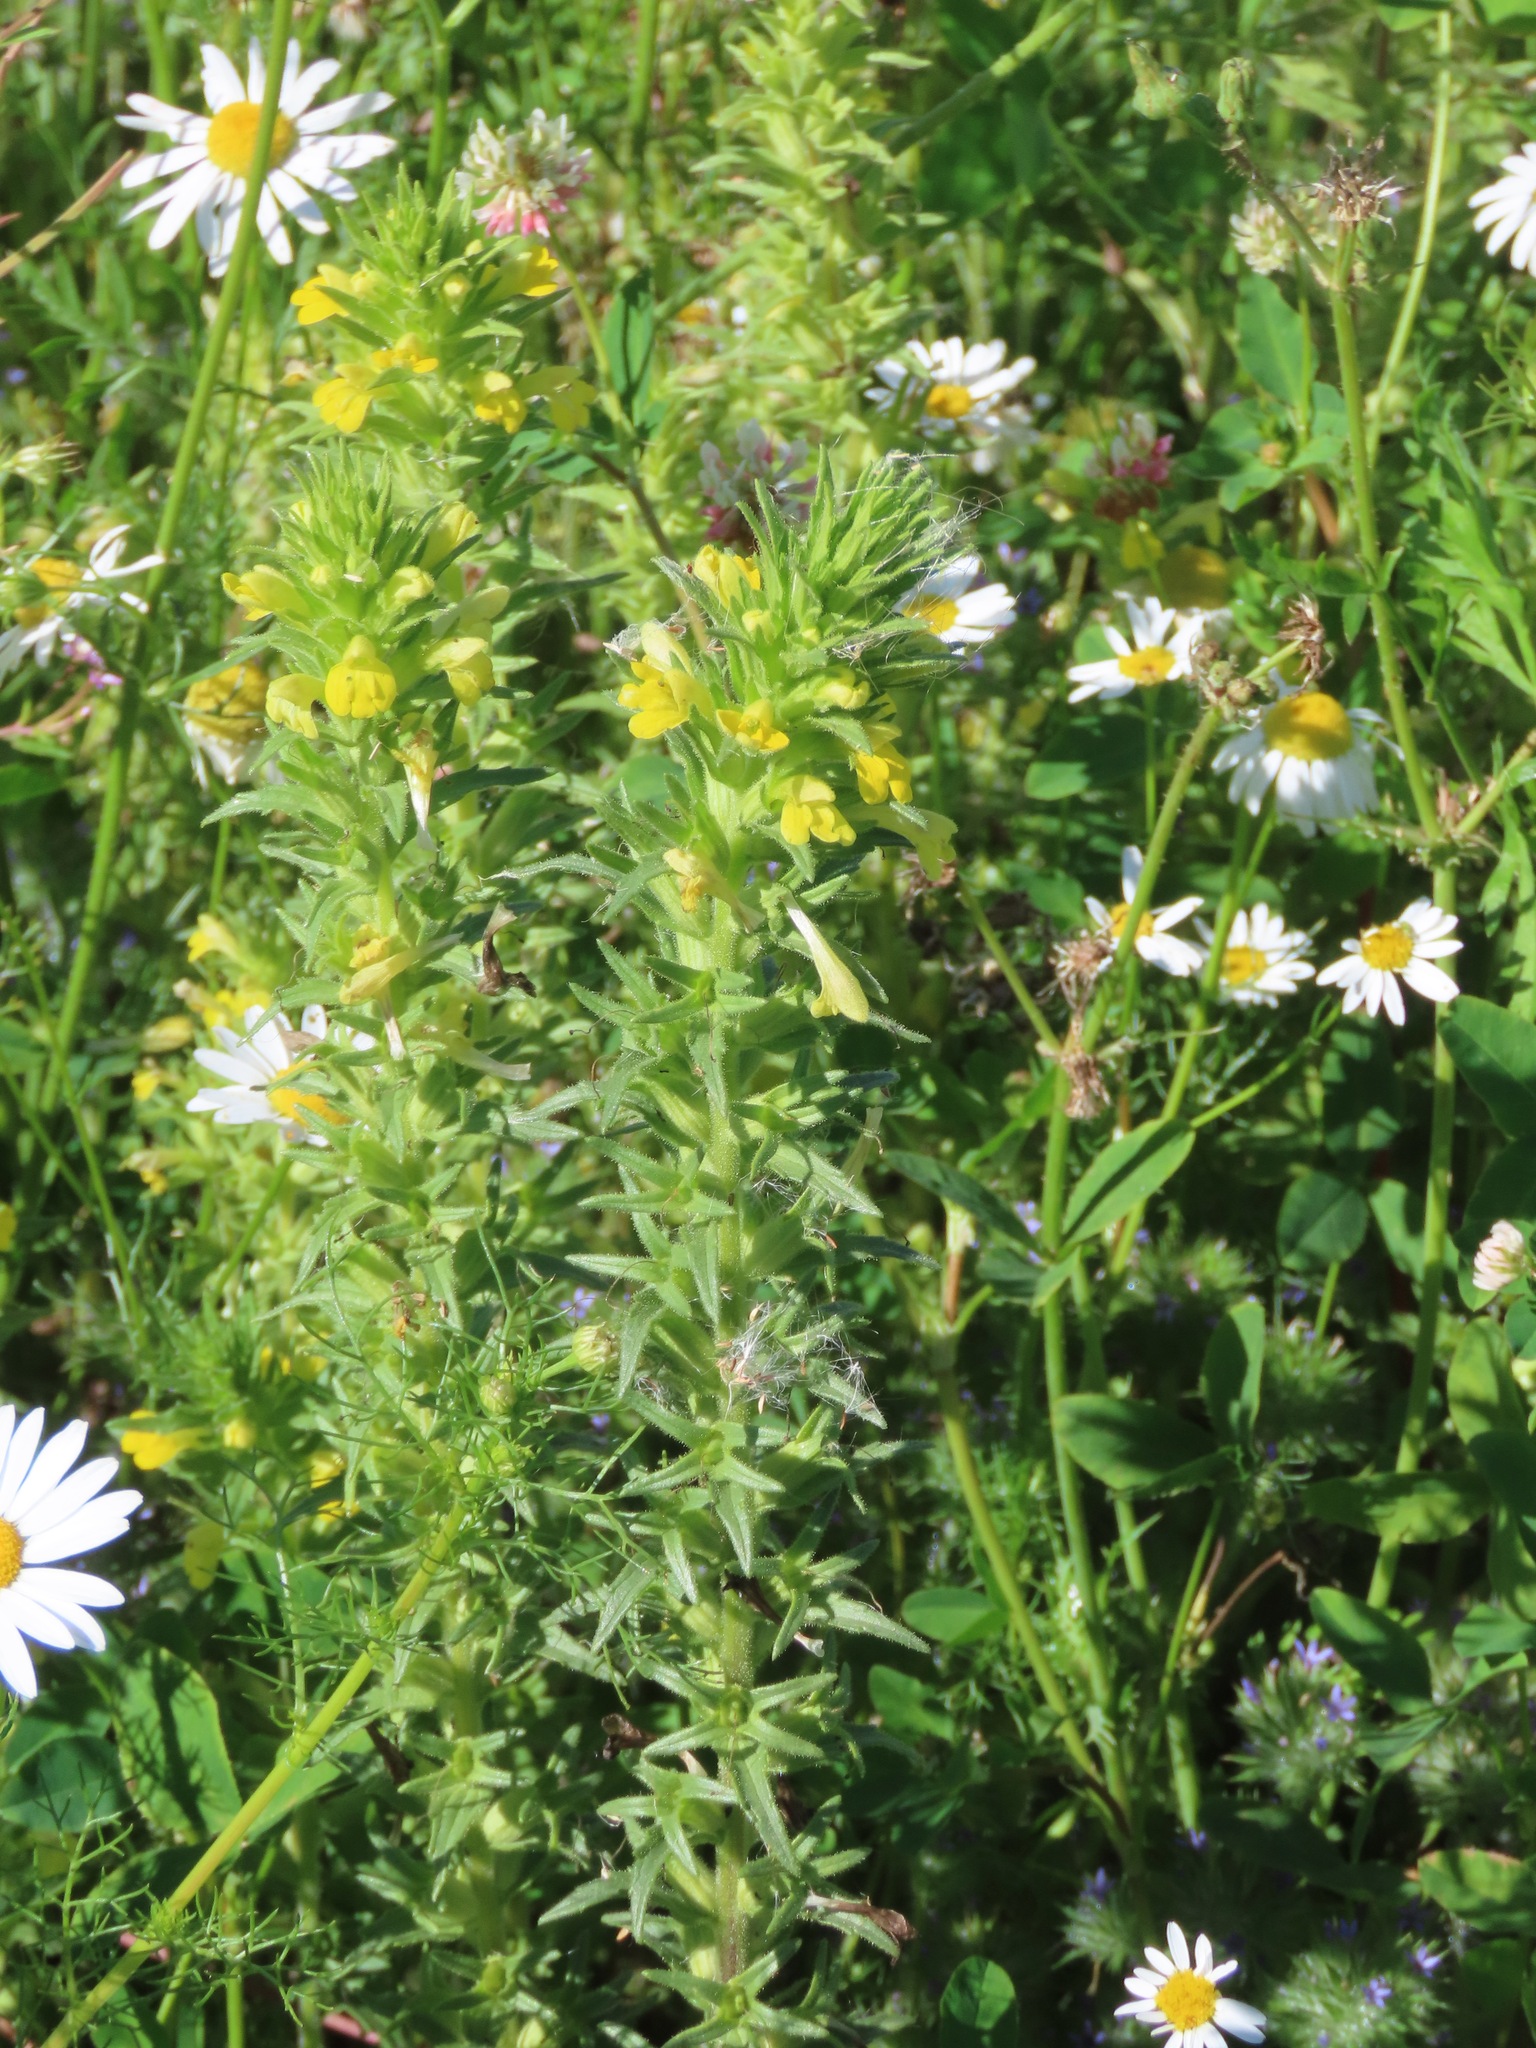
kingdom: Plantae
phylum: Tracheophyta
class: Magnoliopsida
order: Lamiales
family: Orobanchaceae
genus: Bellardia
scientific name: Bellardia viscosa
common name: Sticky parentucellia
